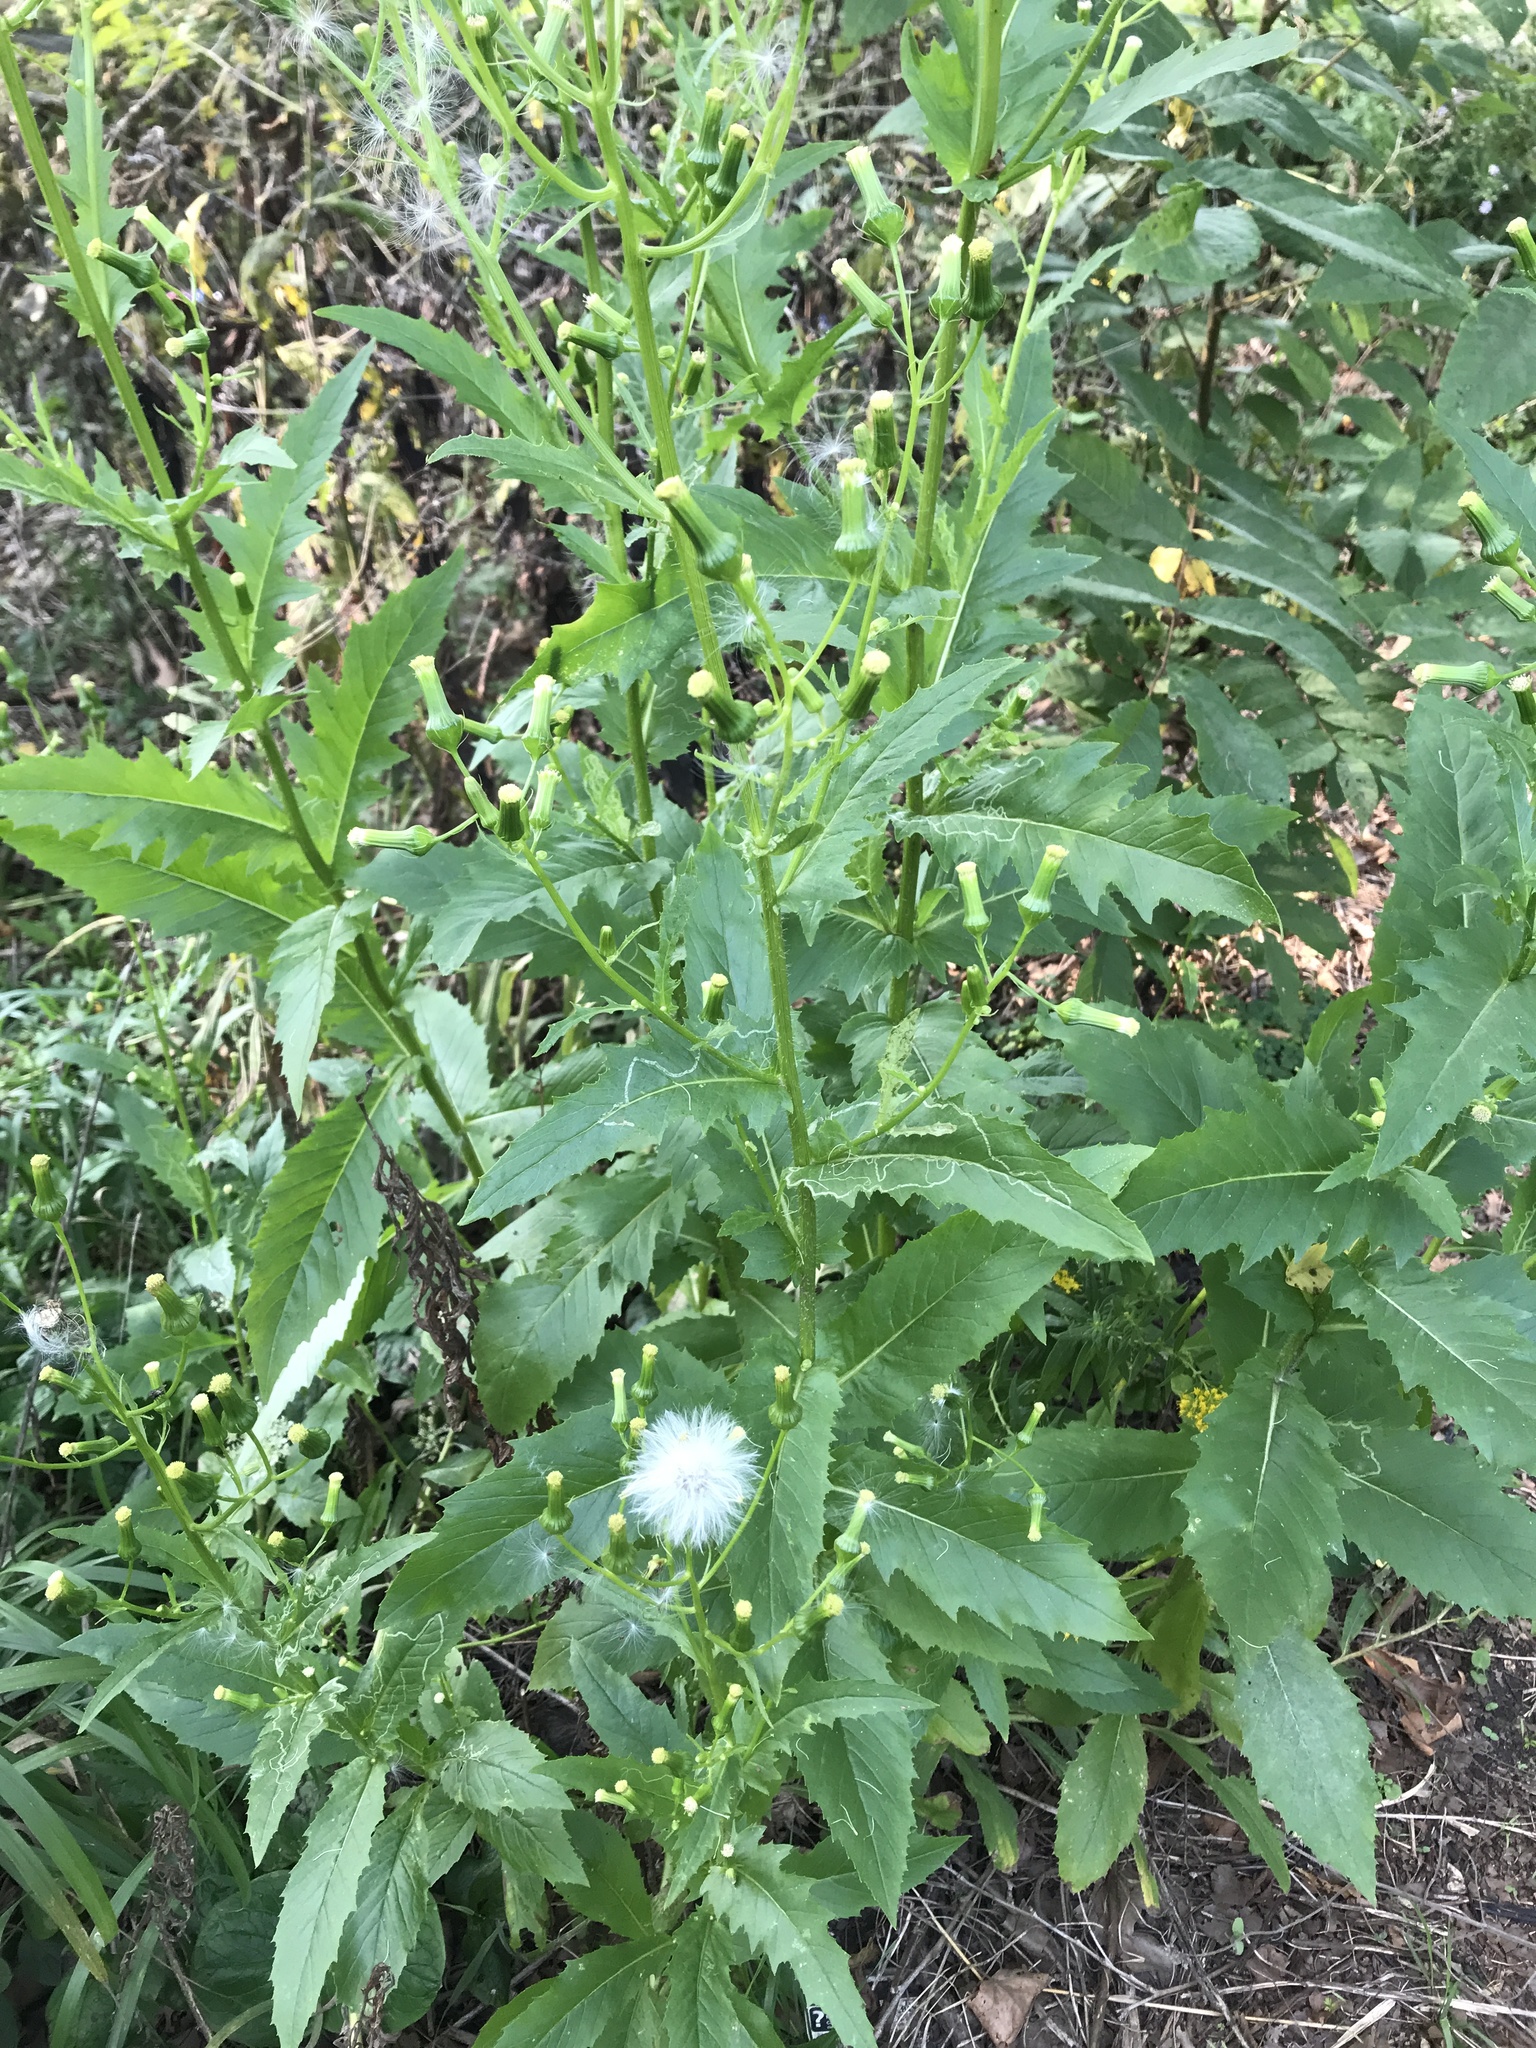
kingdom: Plantae
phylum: Tracheophyta
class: Magnoliopsida
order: Asterales
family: Asteraceae
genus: Erechtites
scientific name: Erechtites hieraciifolius
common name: American burnweed
